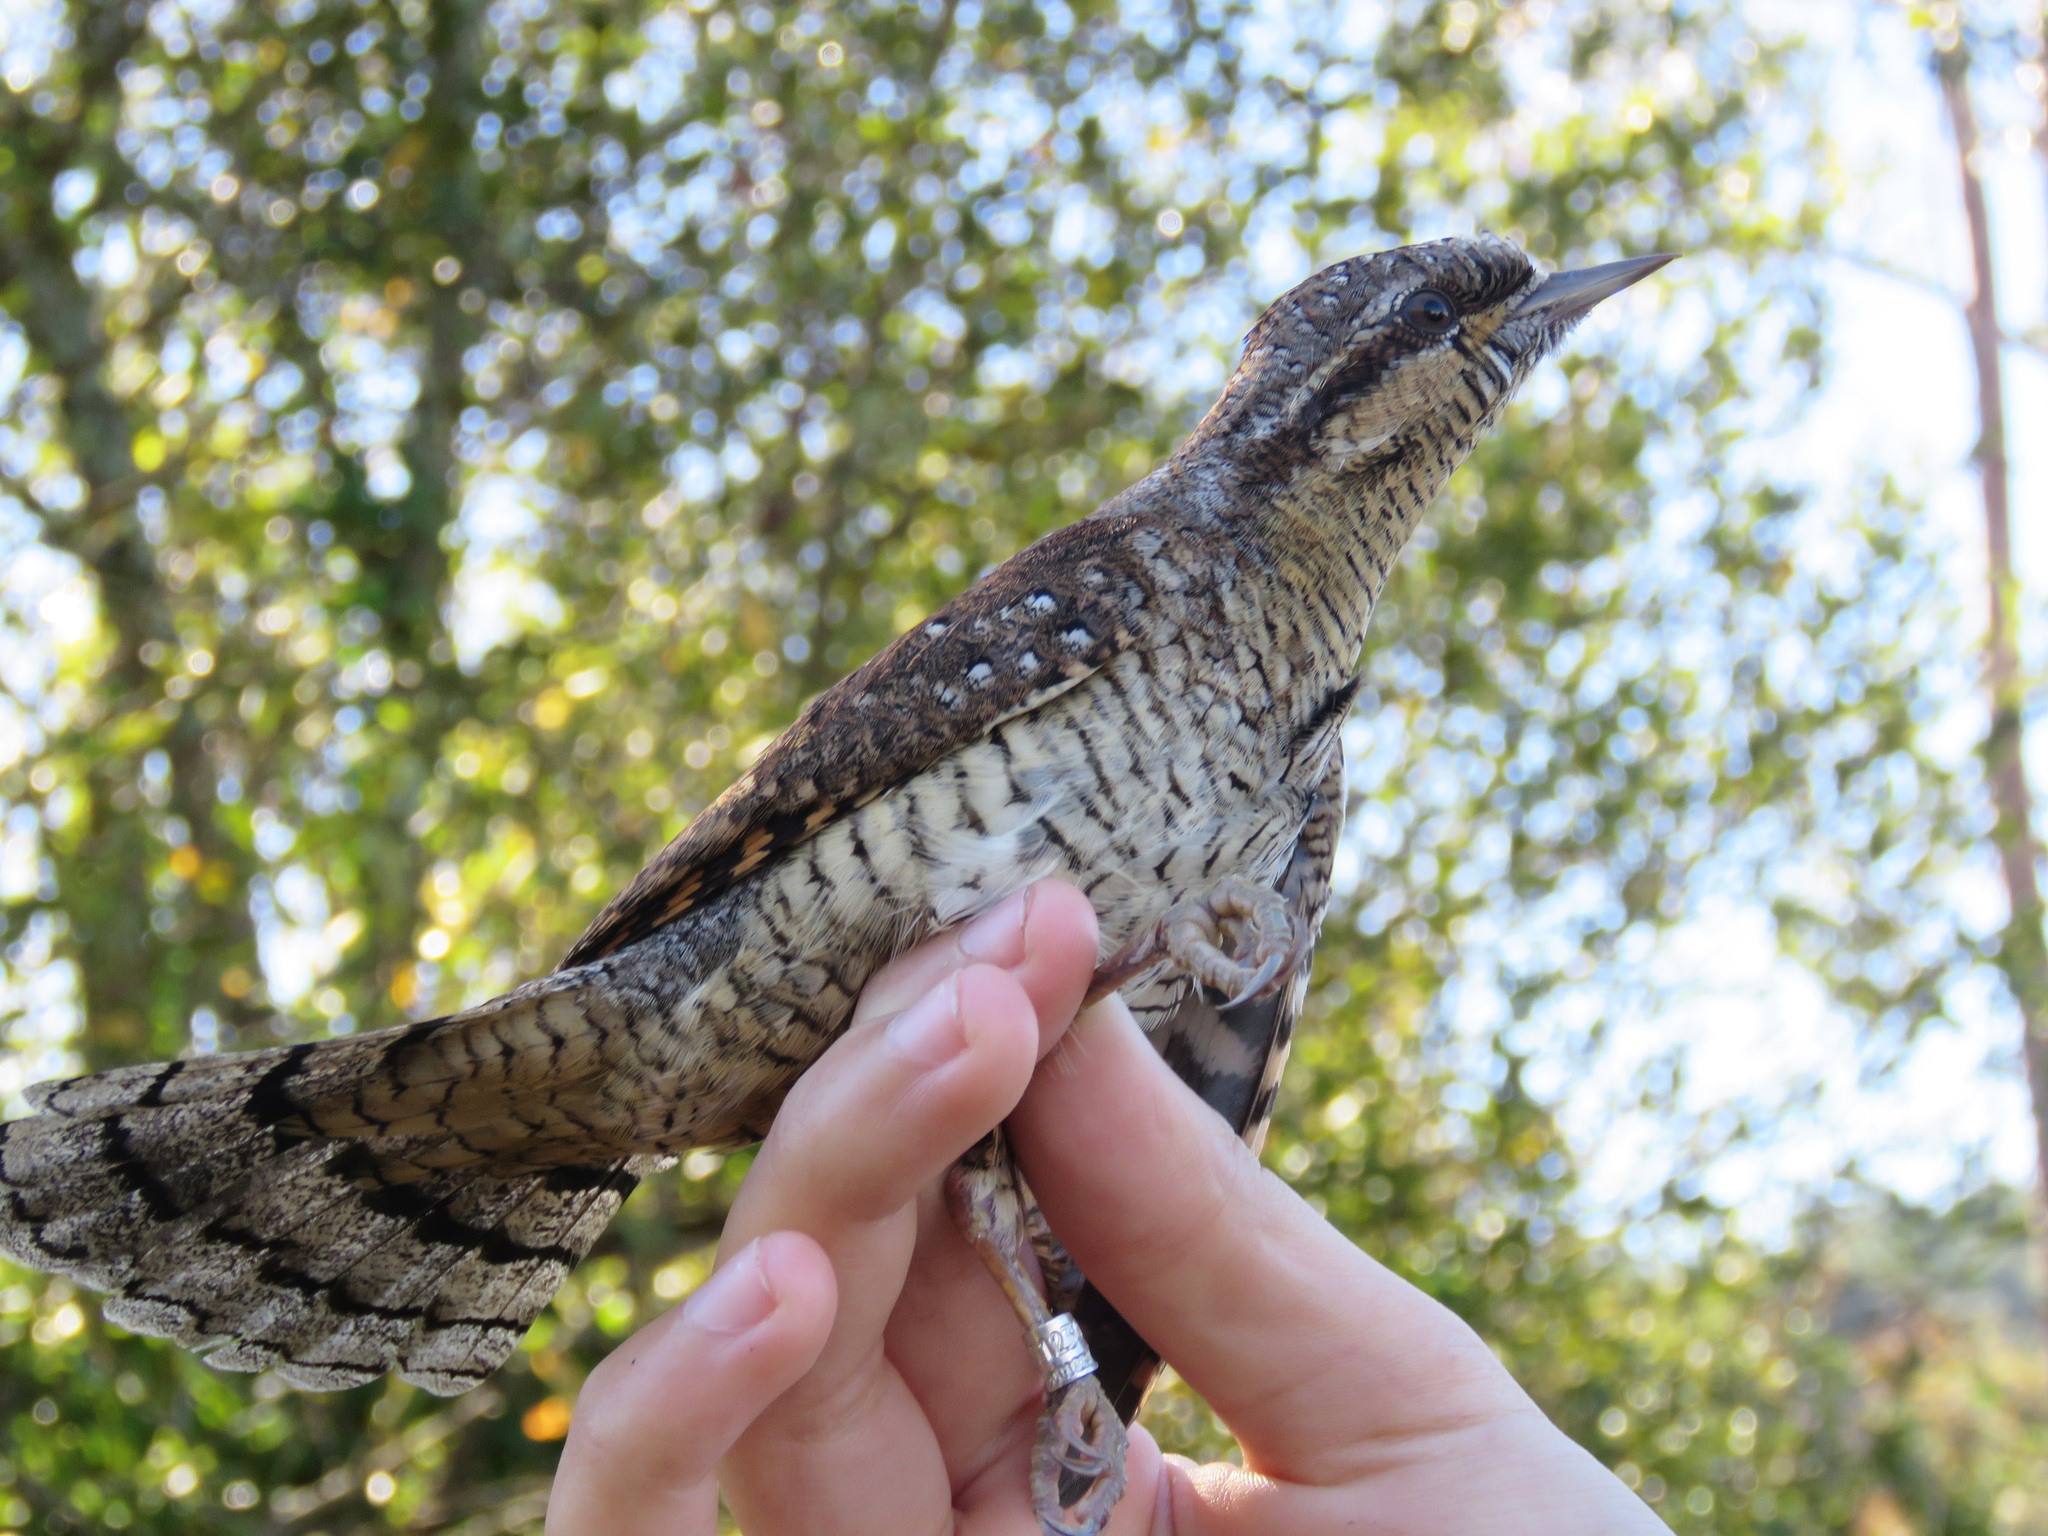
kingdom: Animalia
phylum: Chordata
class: Aves
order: Piciformes
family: Picidae
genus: Jynx
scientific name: Jynx torquilla
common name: Eurasian wryneck
